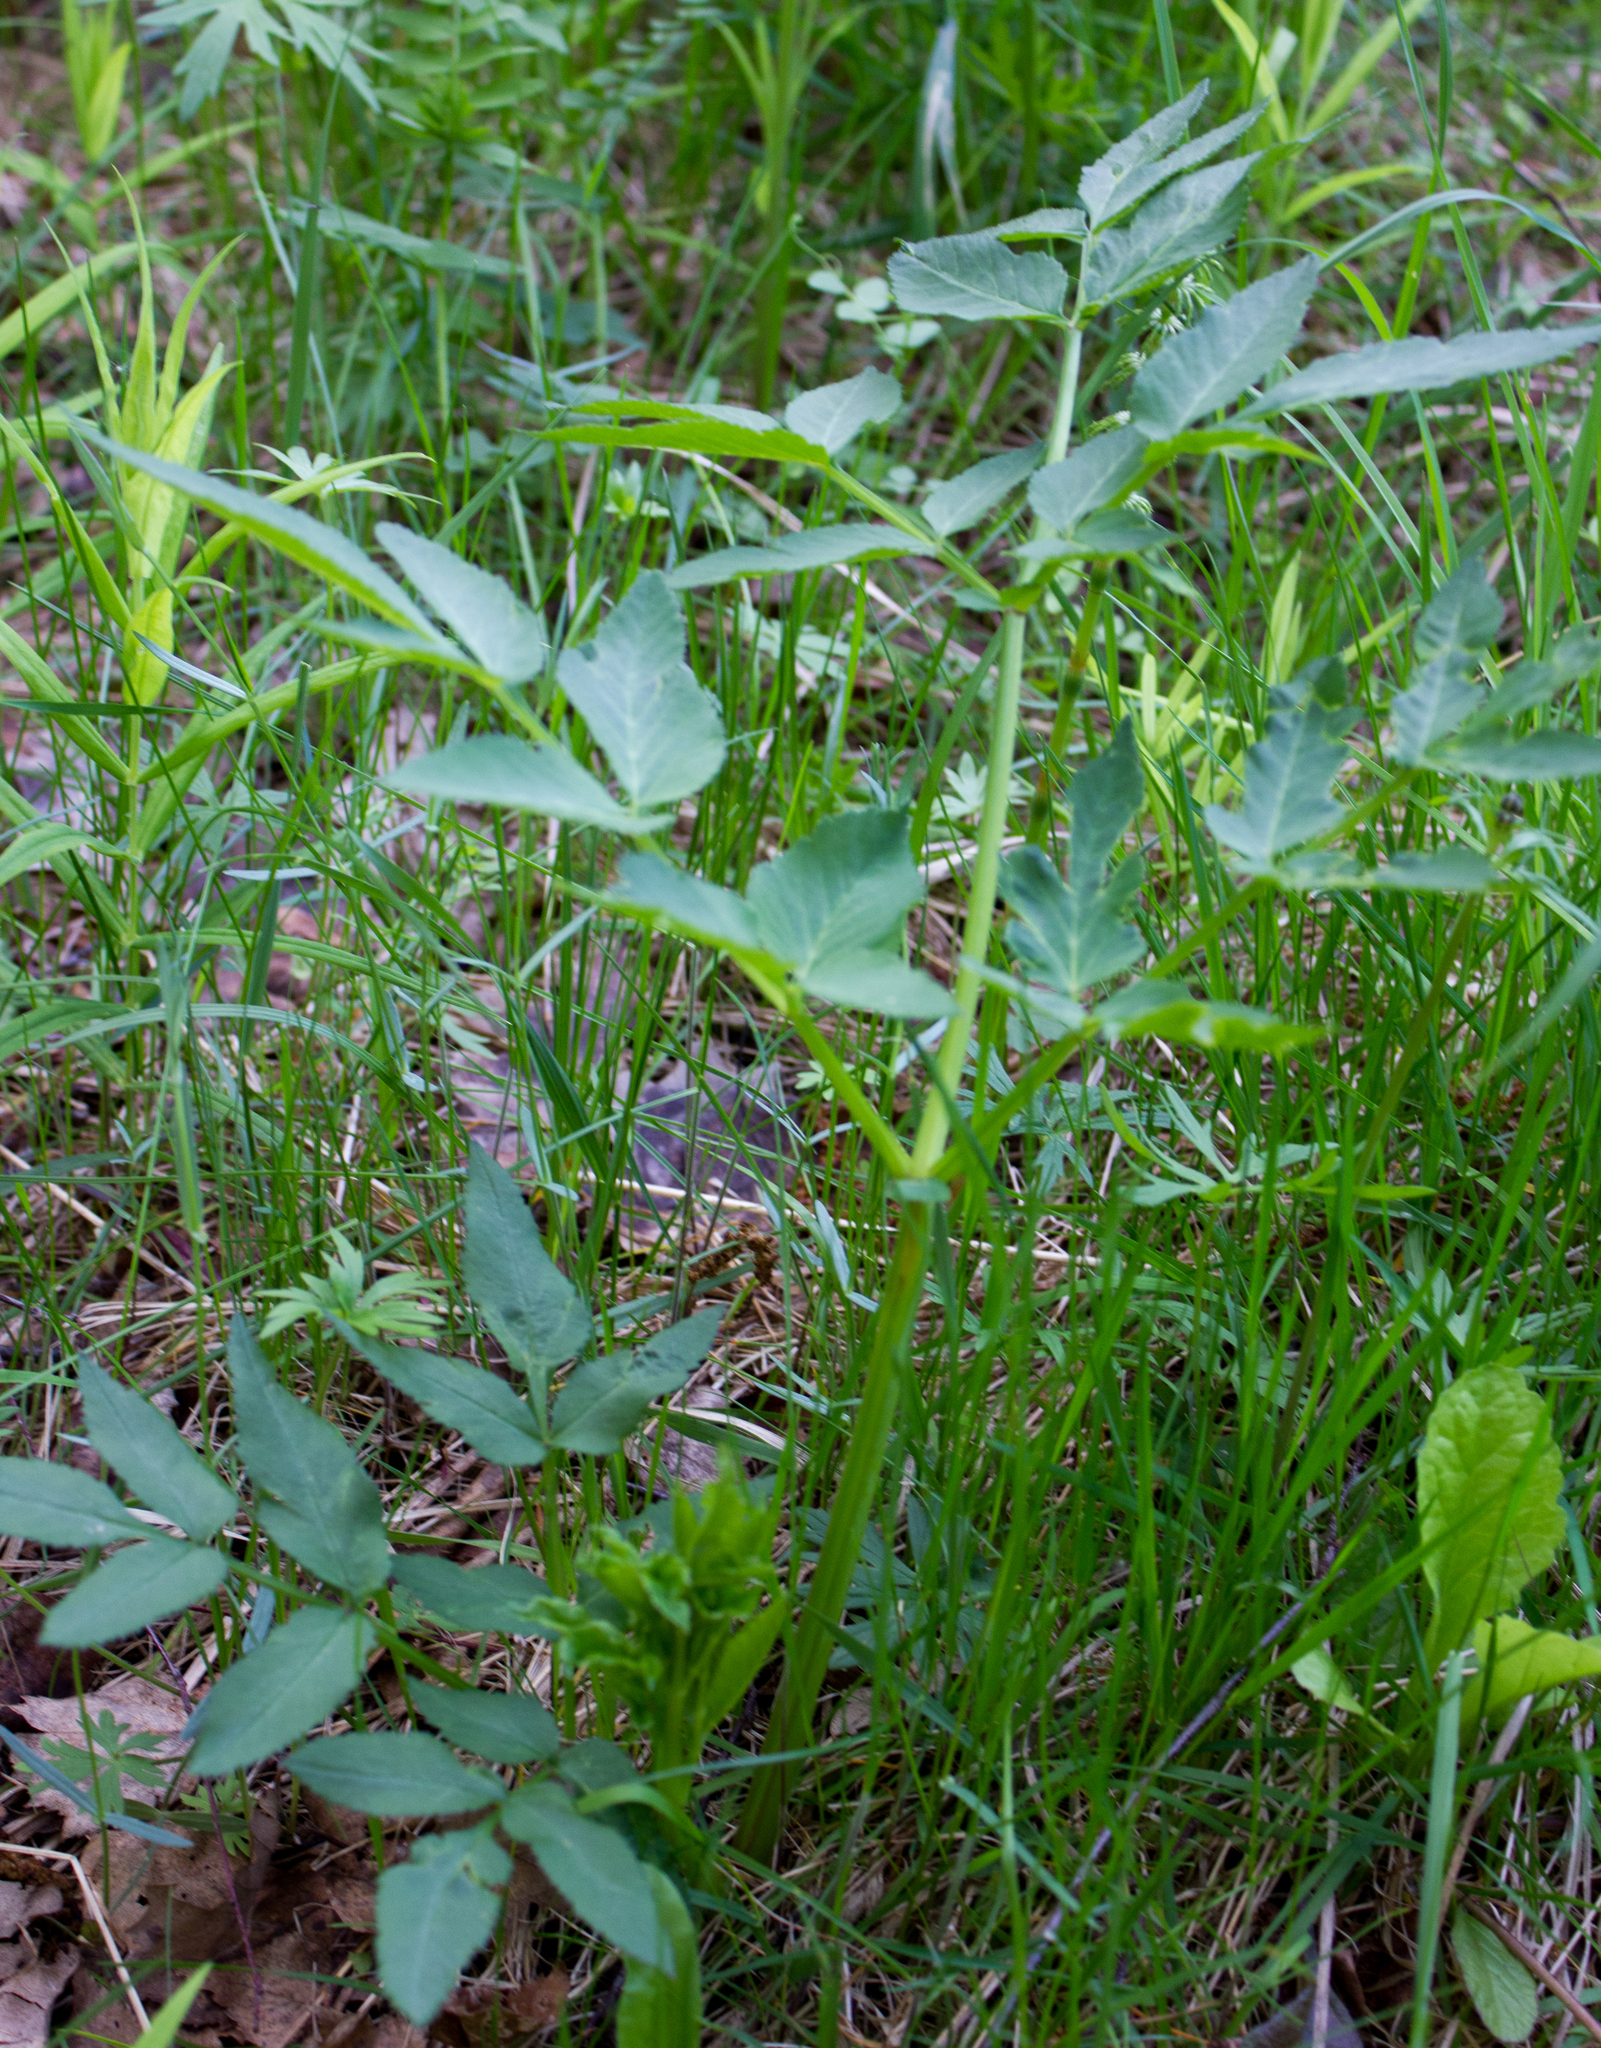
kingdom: Plantae
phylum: Tracheophyta
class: Magnoliopsida
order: Apiales
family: Apiaceae
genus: Angelica
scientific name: Angelica sylvestris
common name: Wild angelica
